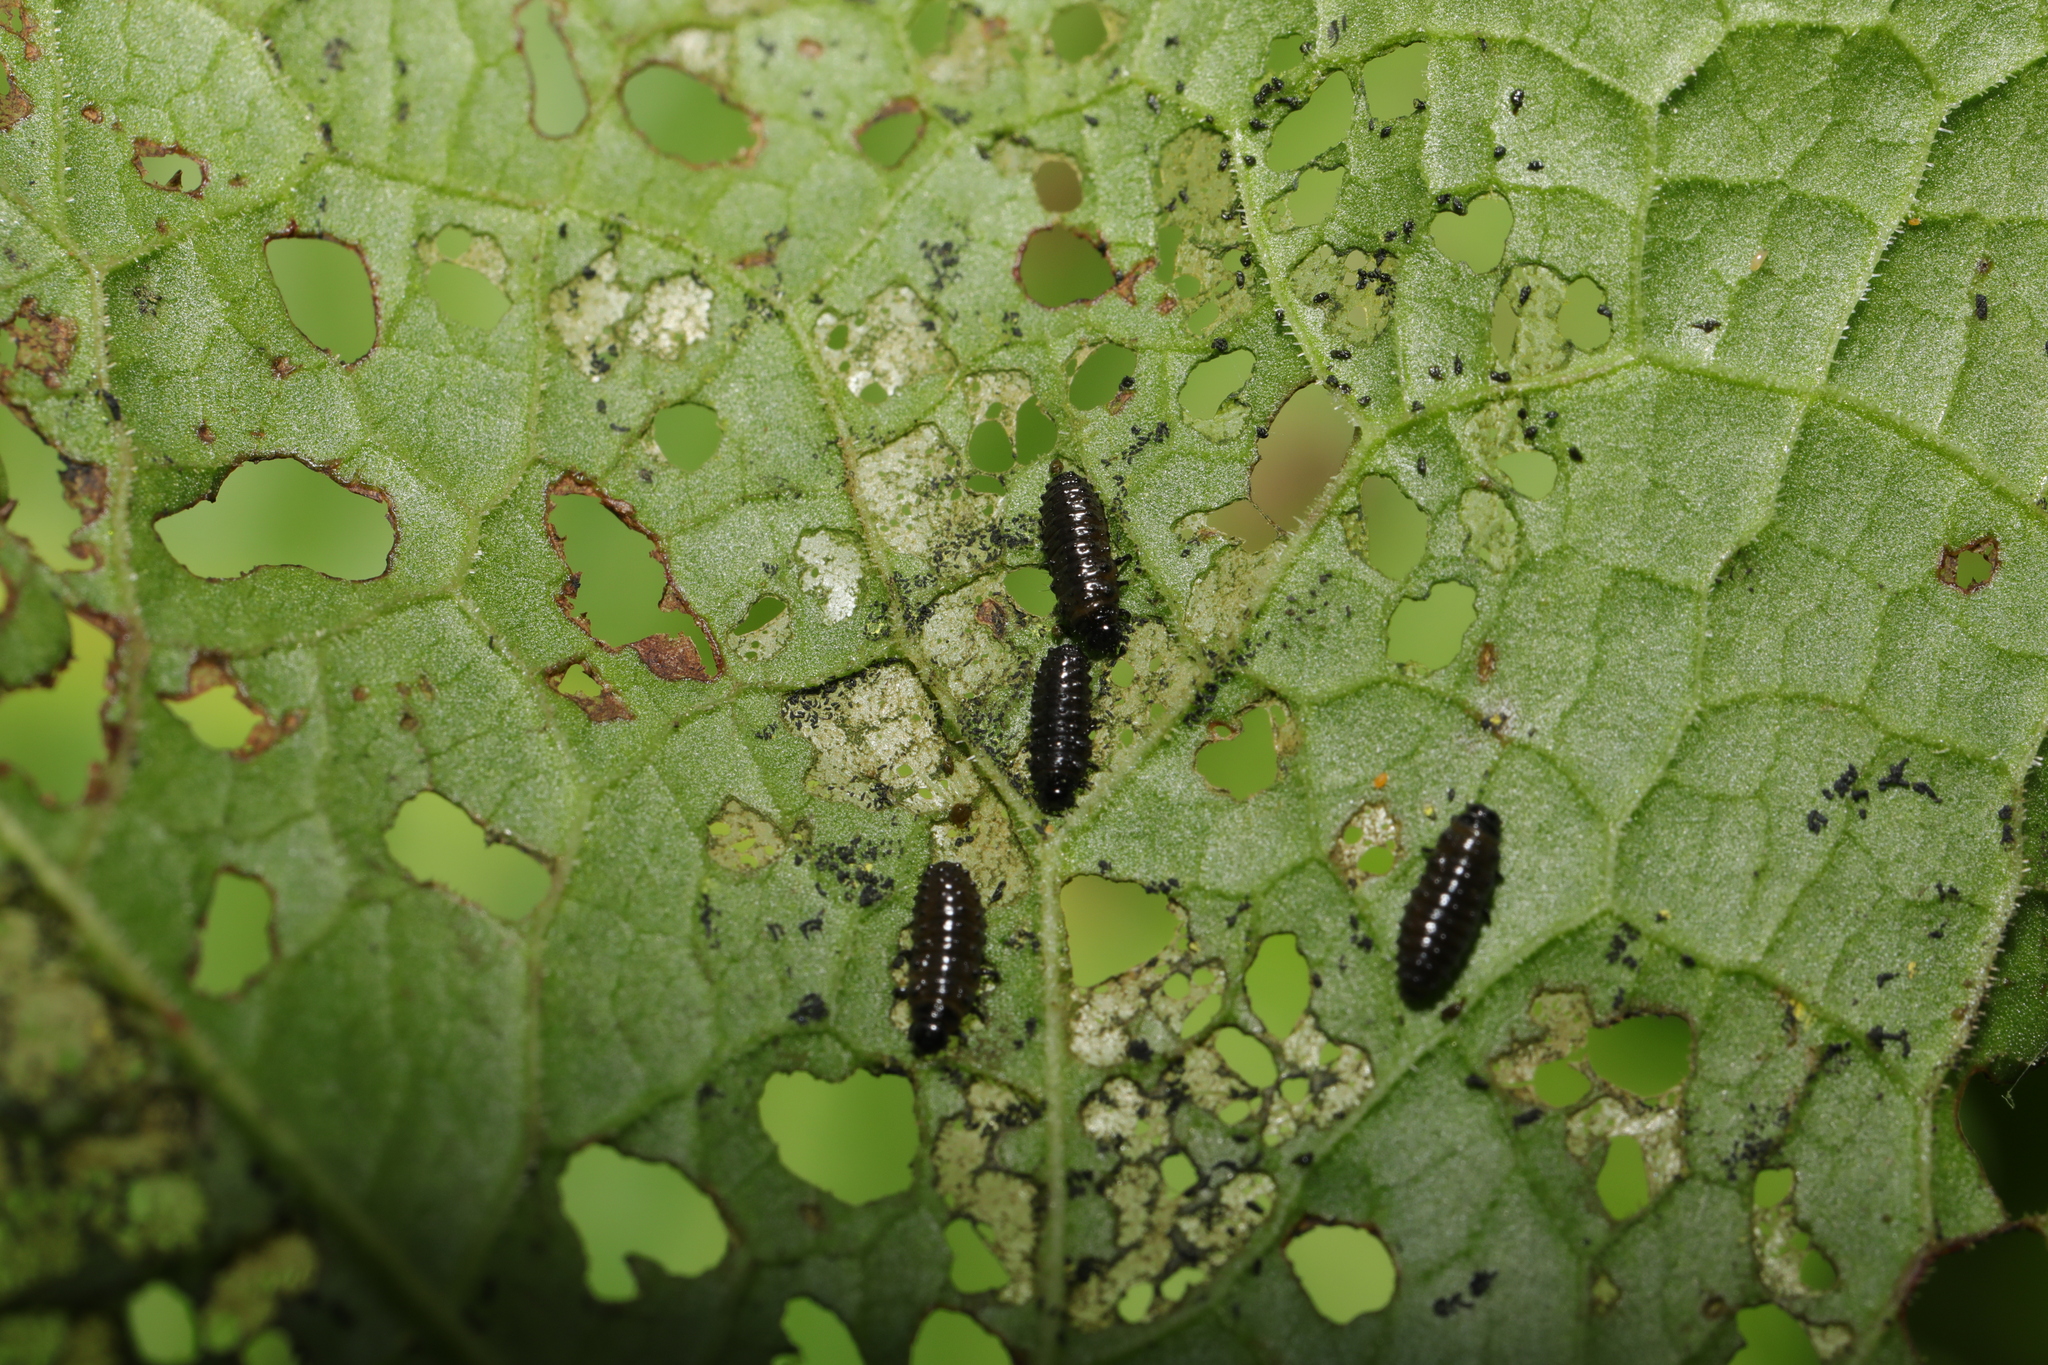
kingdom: Animalia
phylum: Arthropoda
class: Insecta
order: Coleoptera
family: Chrysomelidae
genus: Gastrophysa
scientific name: Gastrophysa viridula
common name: Green dock beetle
